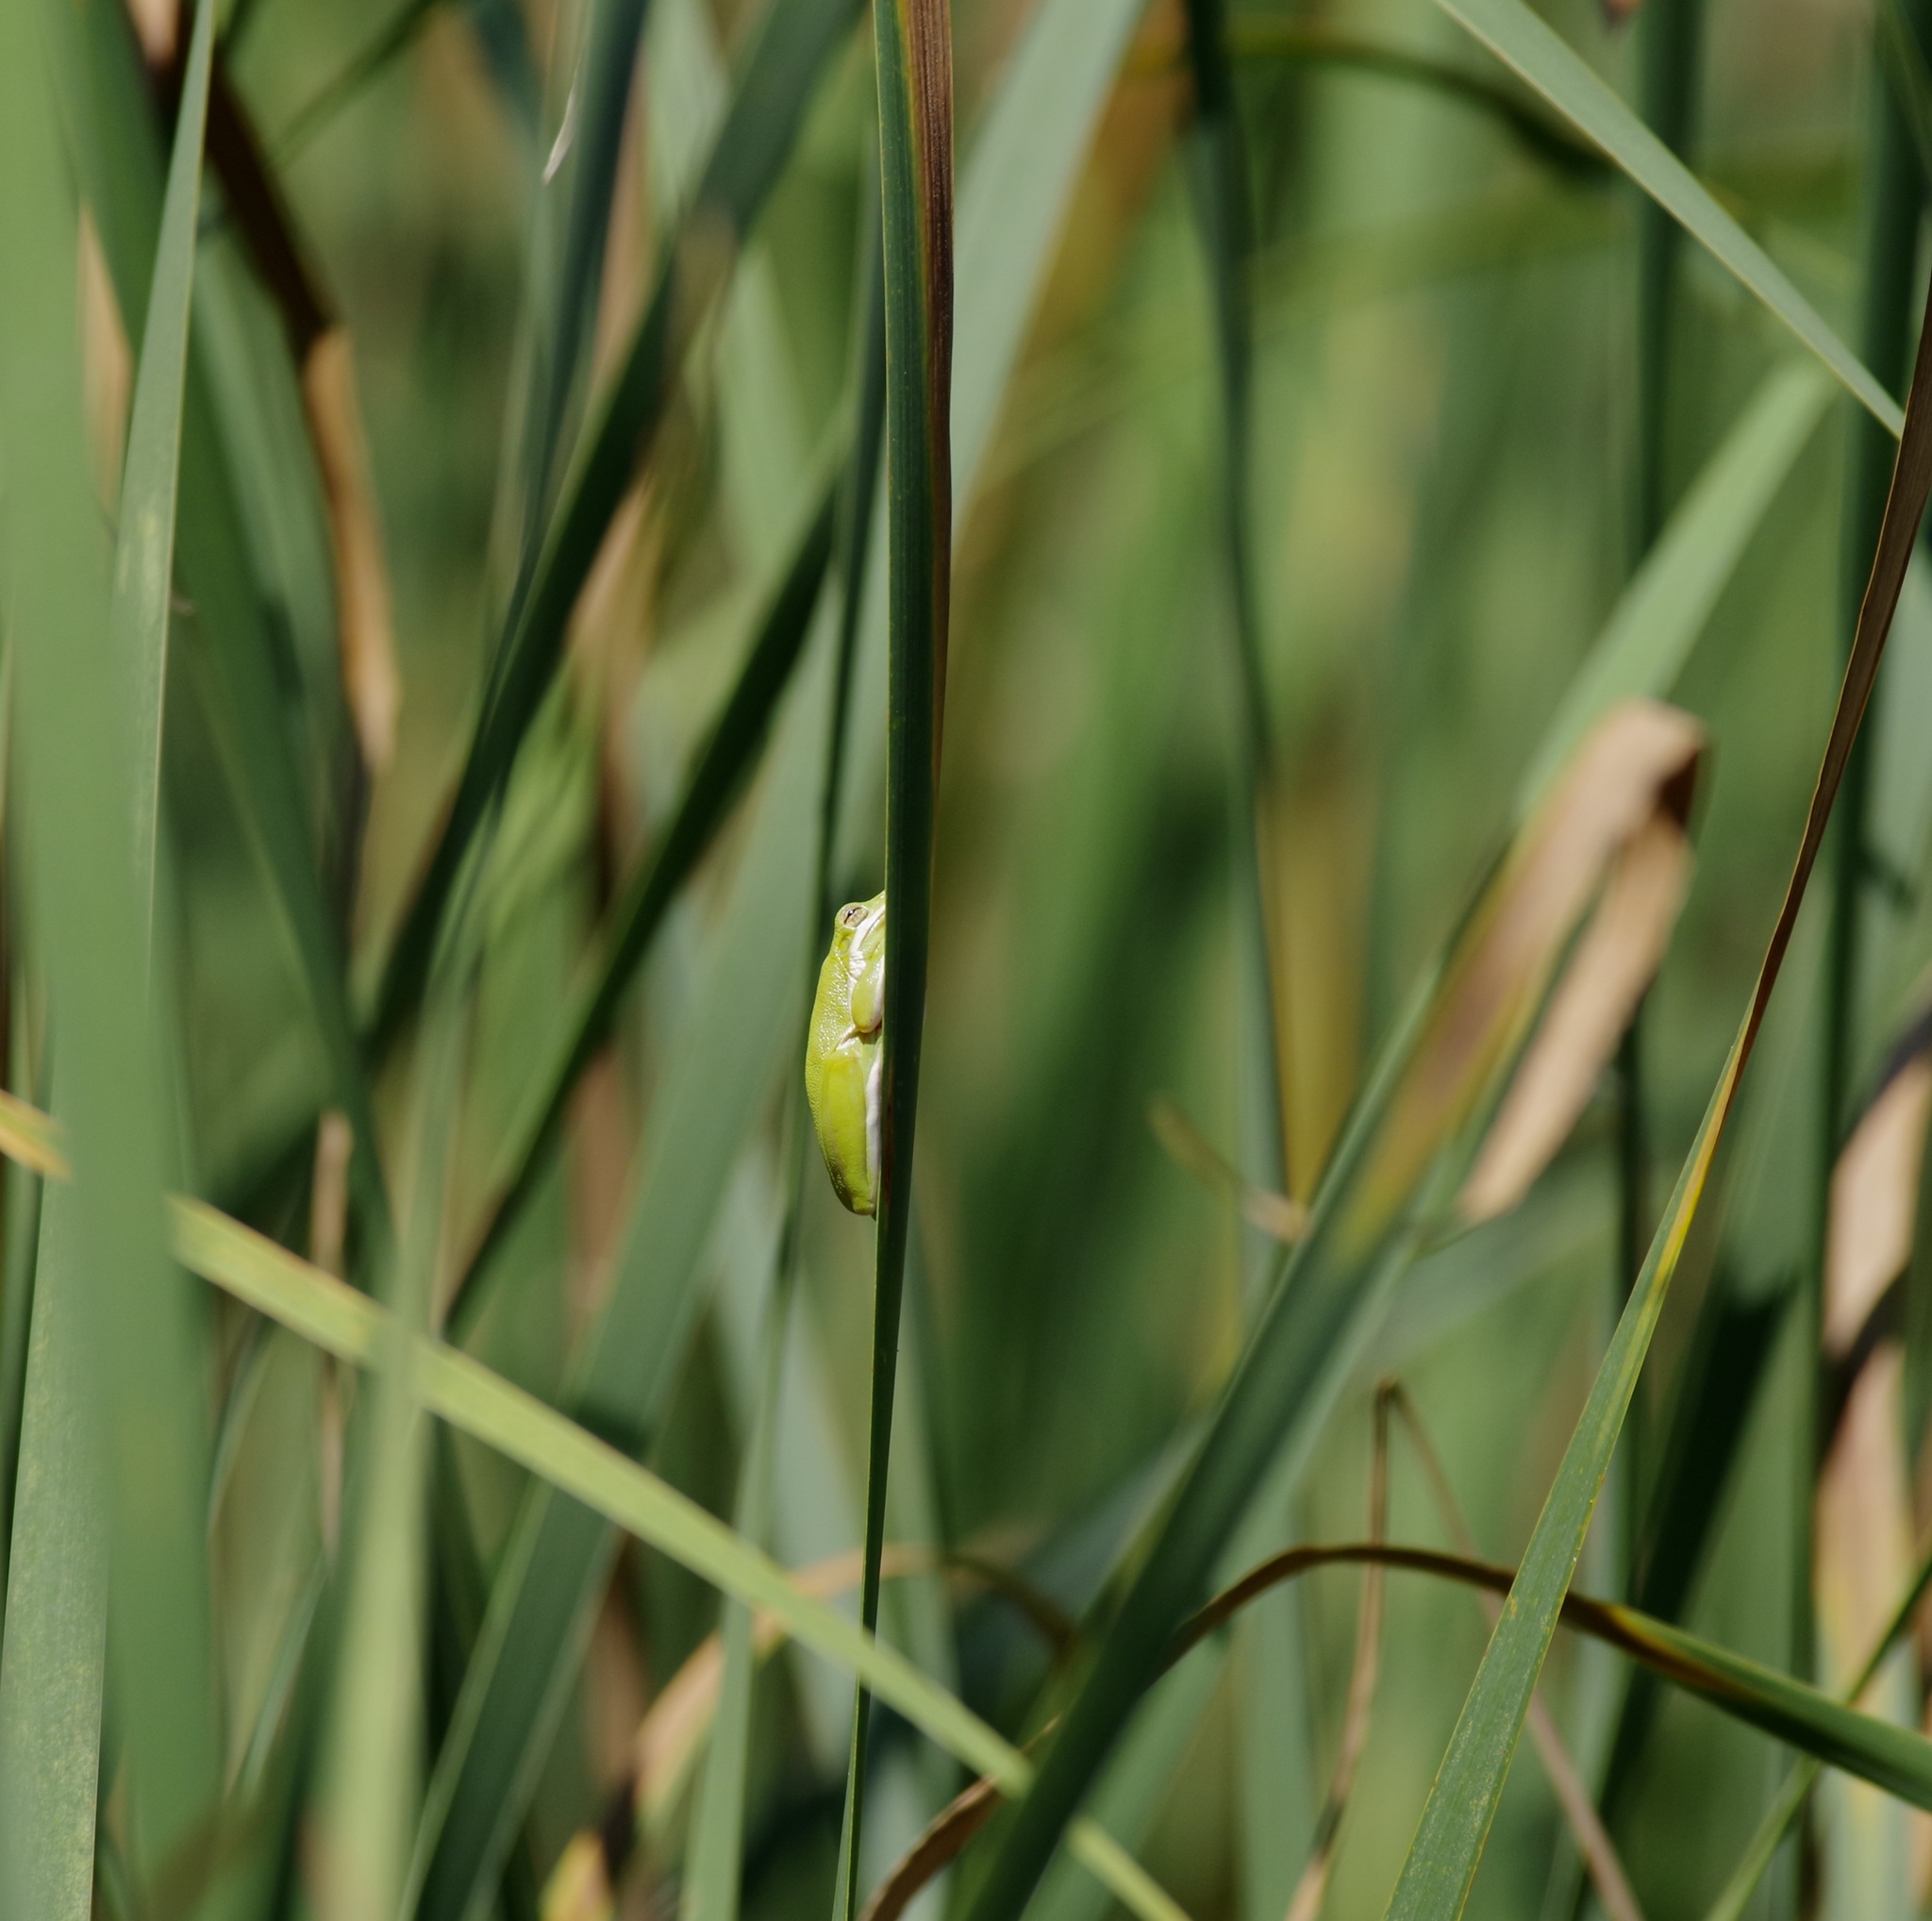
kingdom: Animalia
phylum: Chordata
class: Amphibia
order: Anura
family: Hylidae
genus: Dryophytes
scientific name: Dryophytes cinereus
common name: Green treefrog
